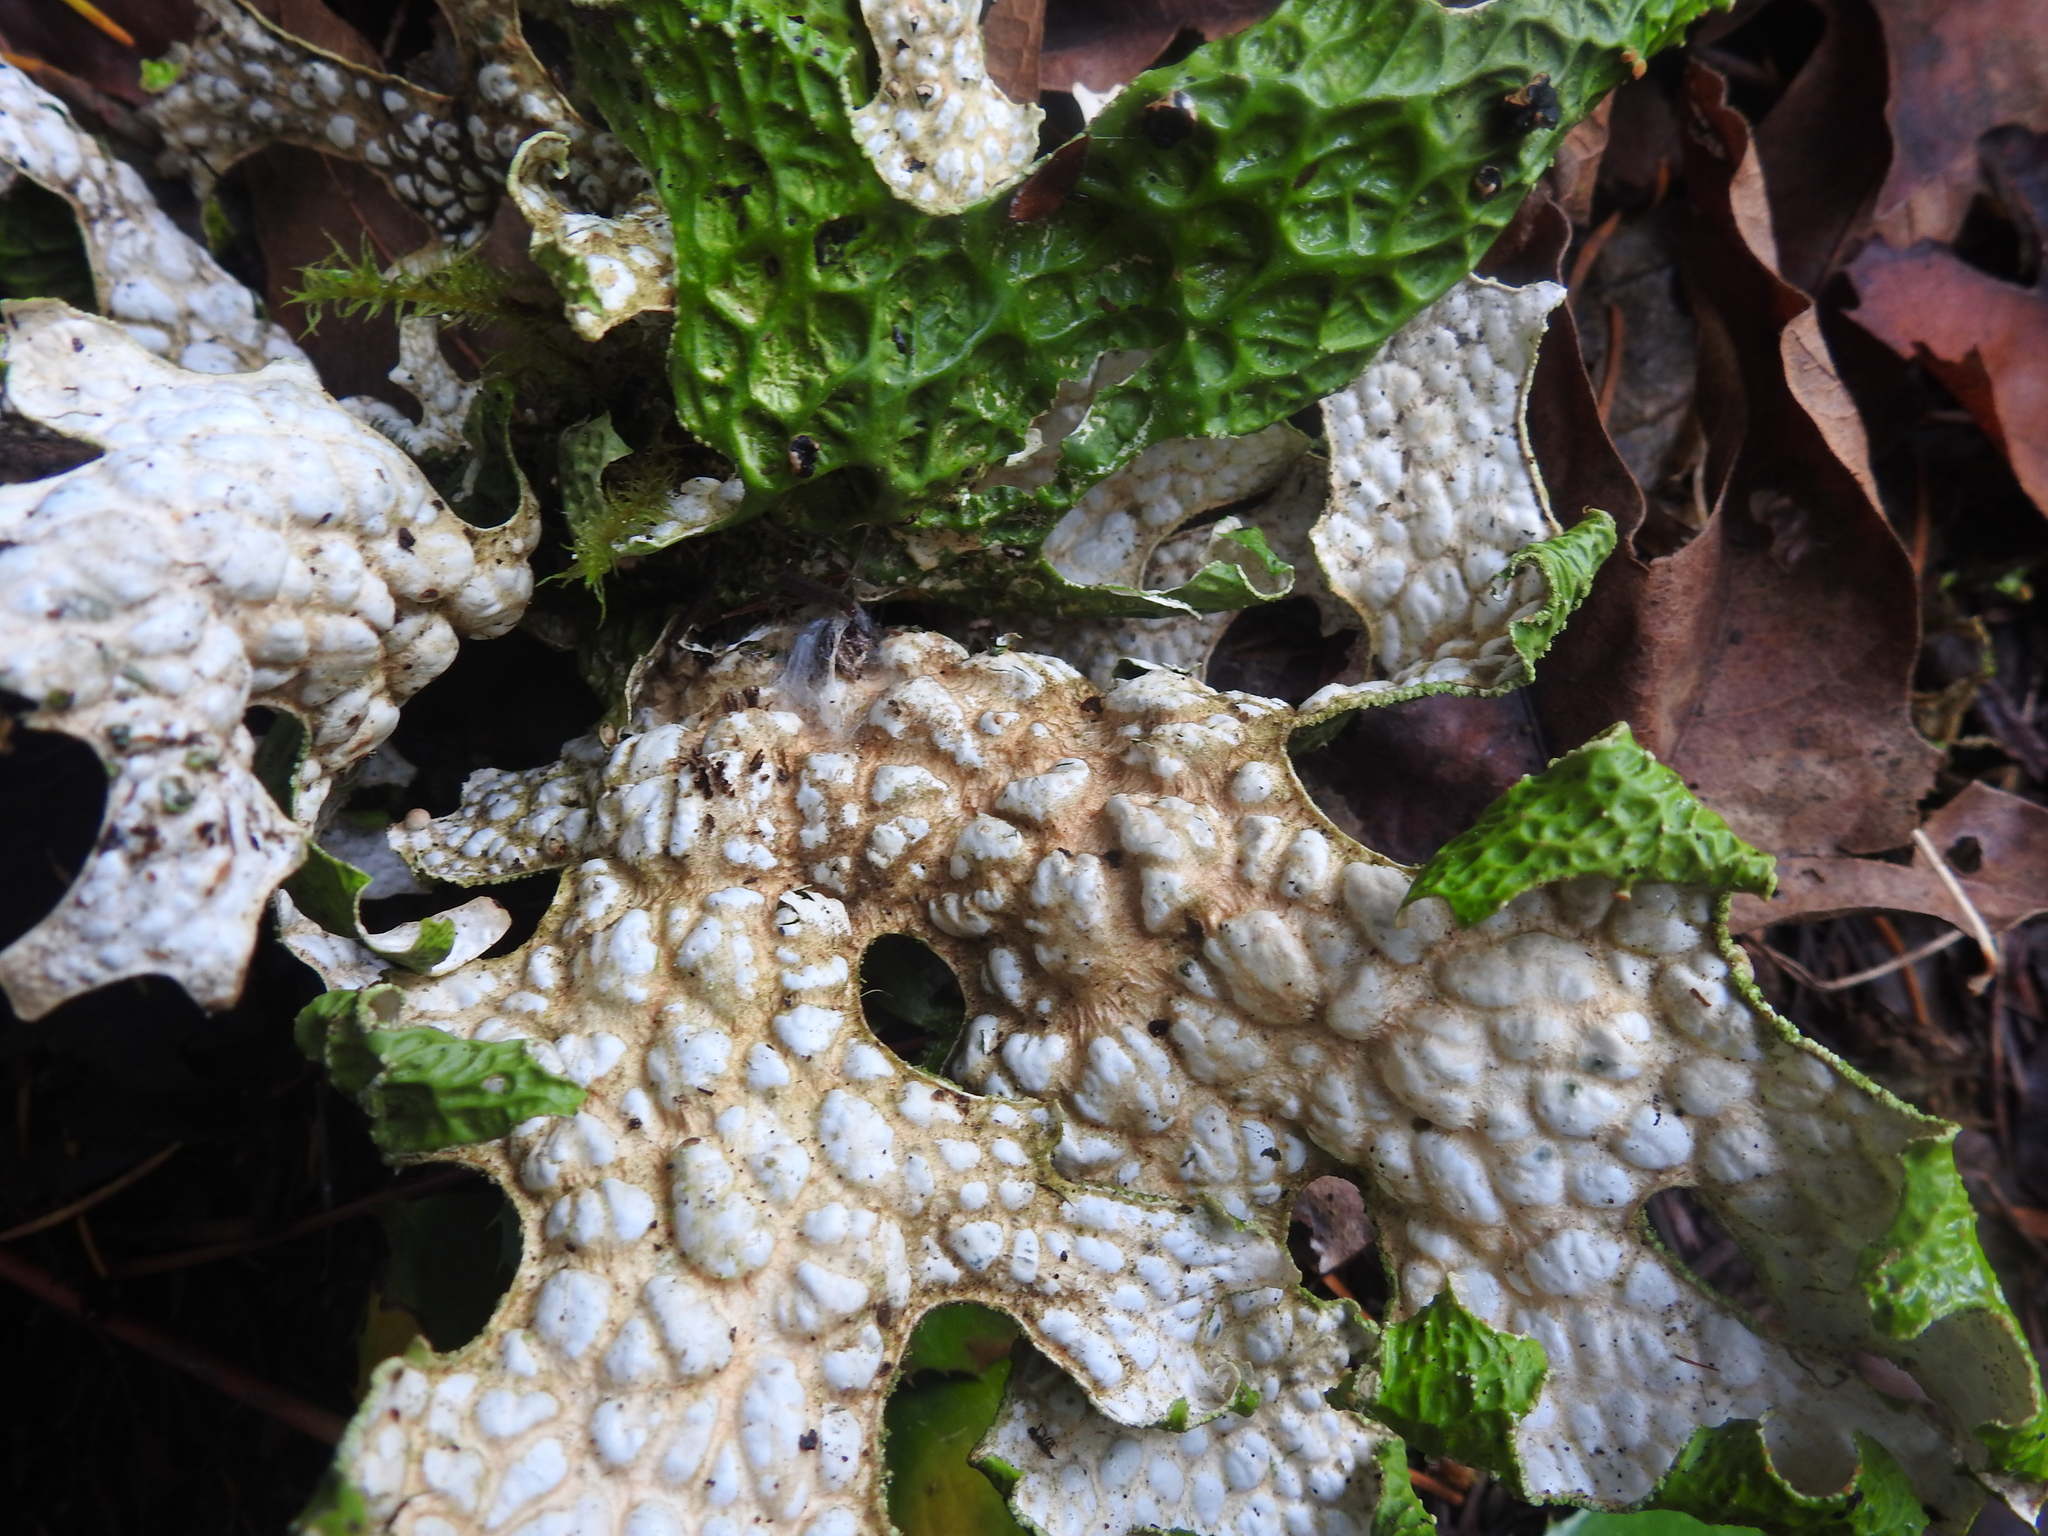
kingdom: Fungi
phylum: Ascomycota
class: Lecanoromycetes
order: Peltigerales
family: Lobariaceae
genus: Lobaria
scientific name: Lobaria pulmonaria
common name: Lungwort
